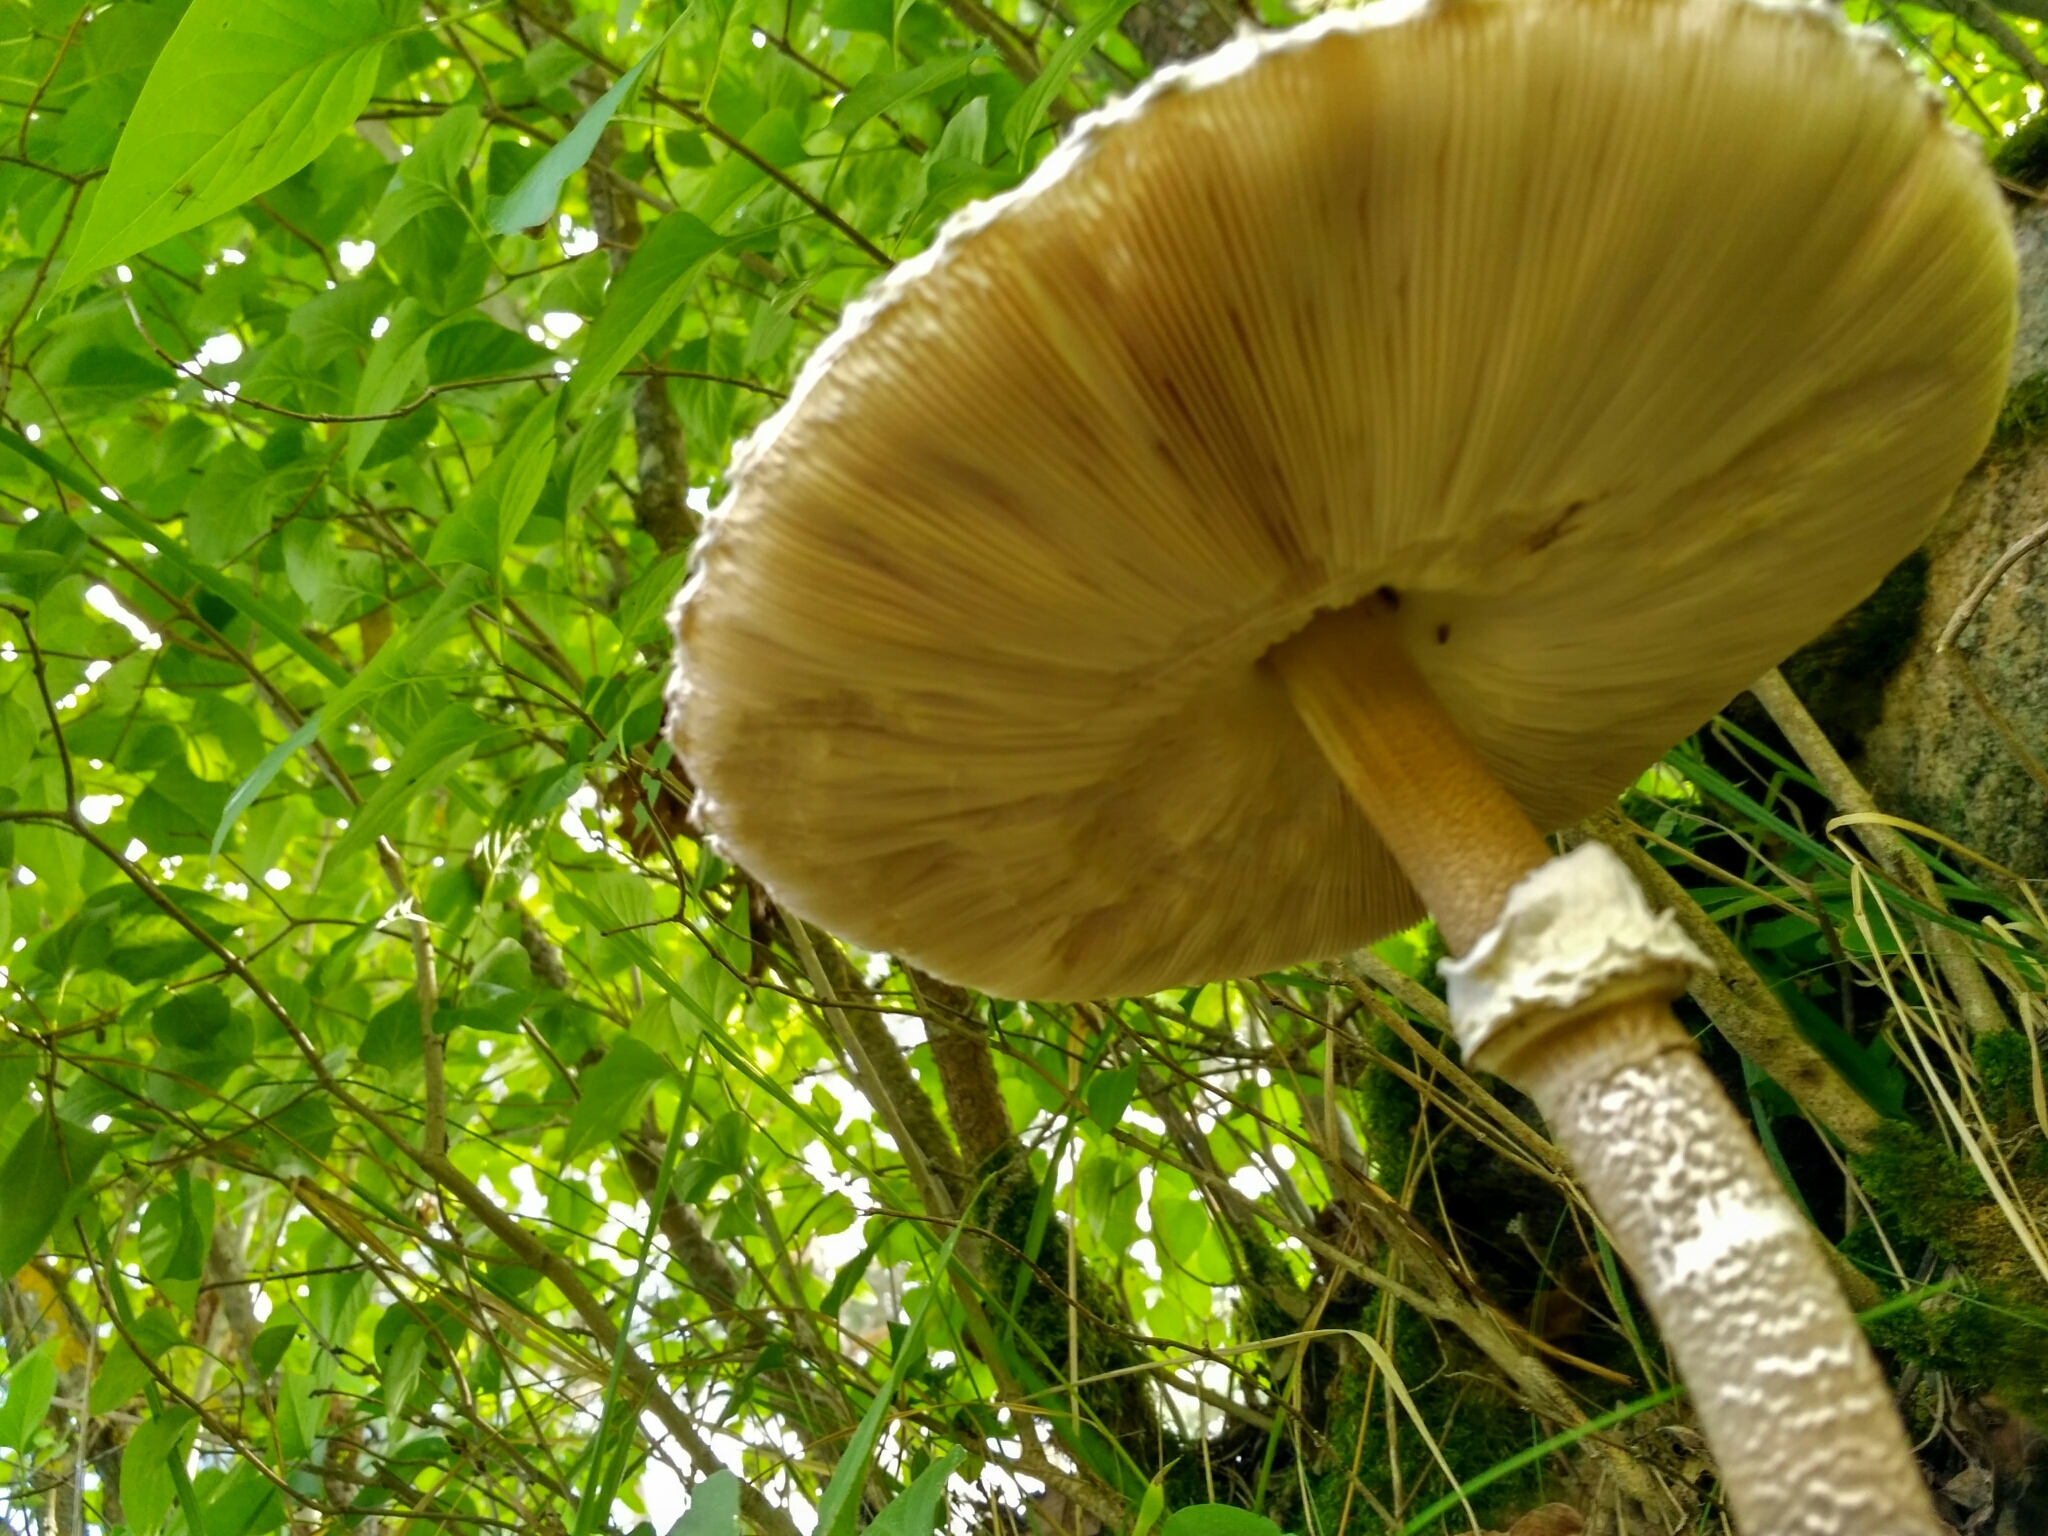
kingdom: Fungi
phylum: Basidiomycota
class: Agaricomycetes
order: Agaricales
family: Agaricaceae
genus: Macrolepiota
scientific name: Macrolepiota procera
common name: Parasol
